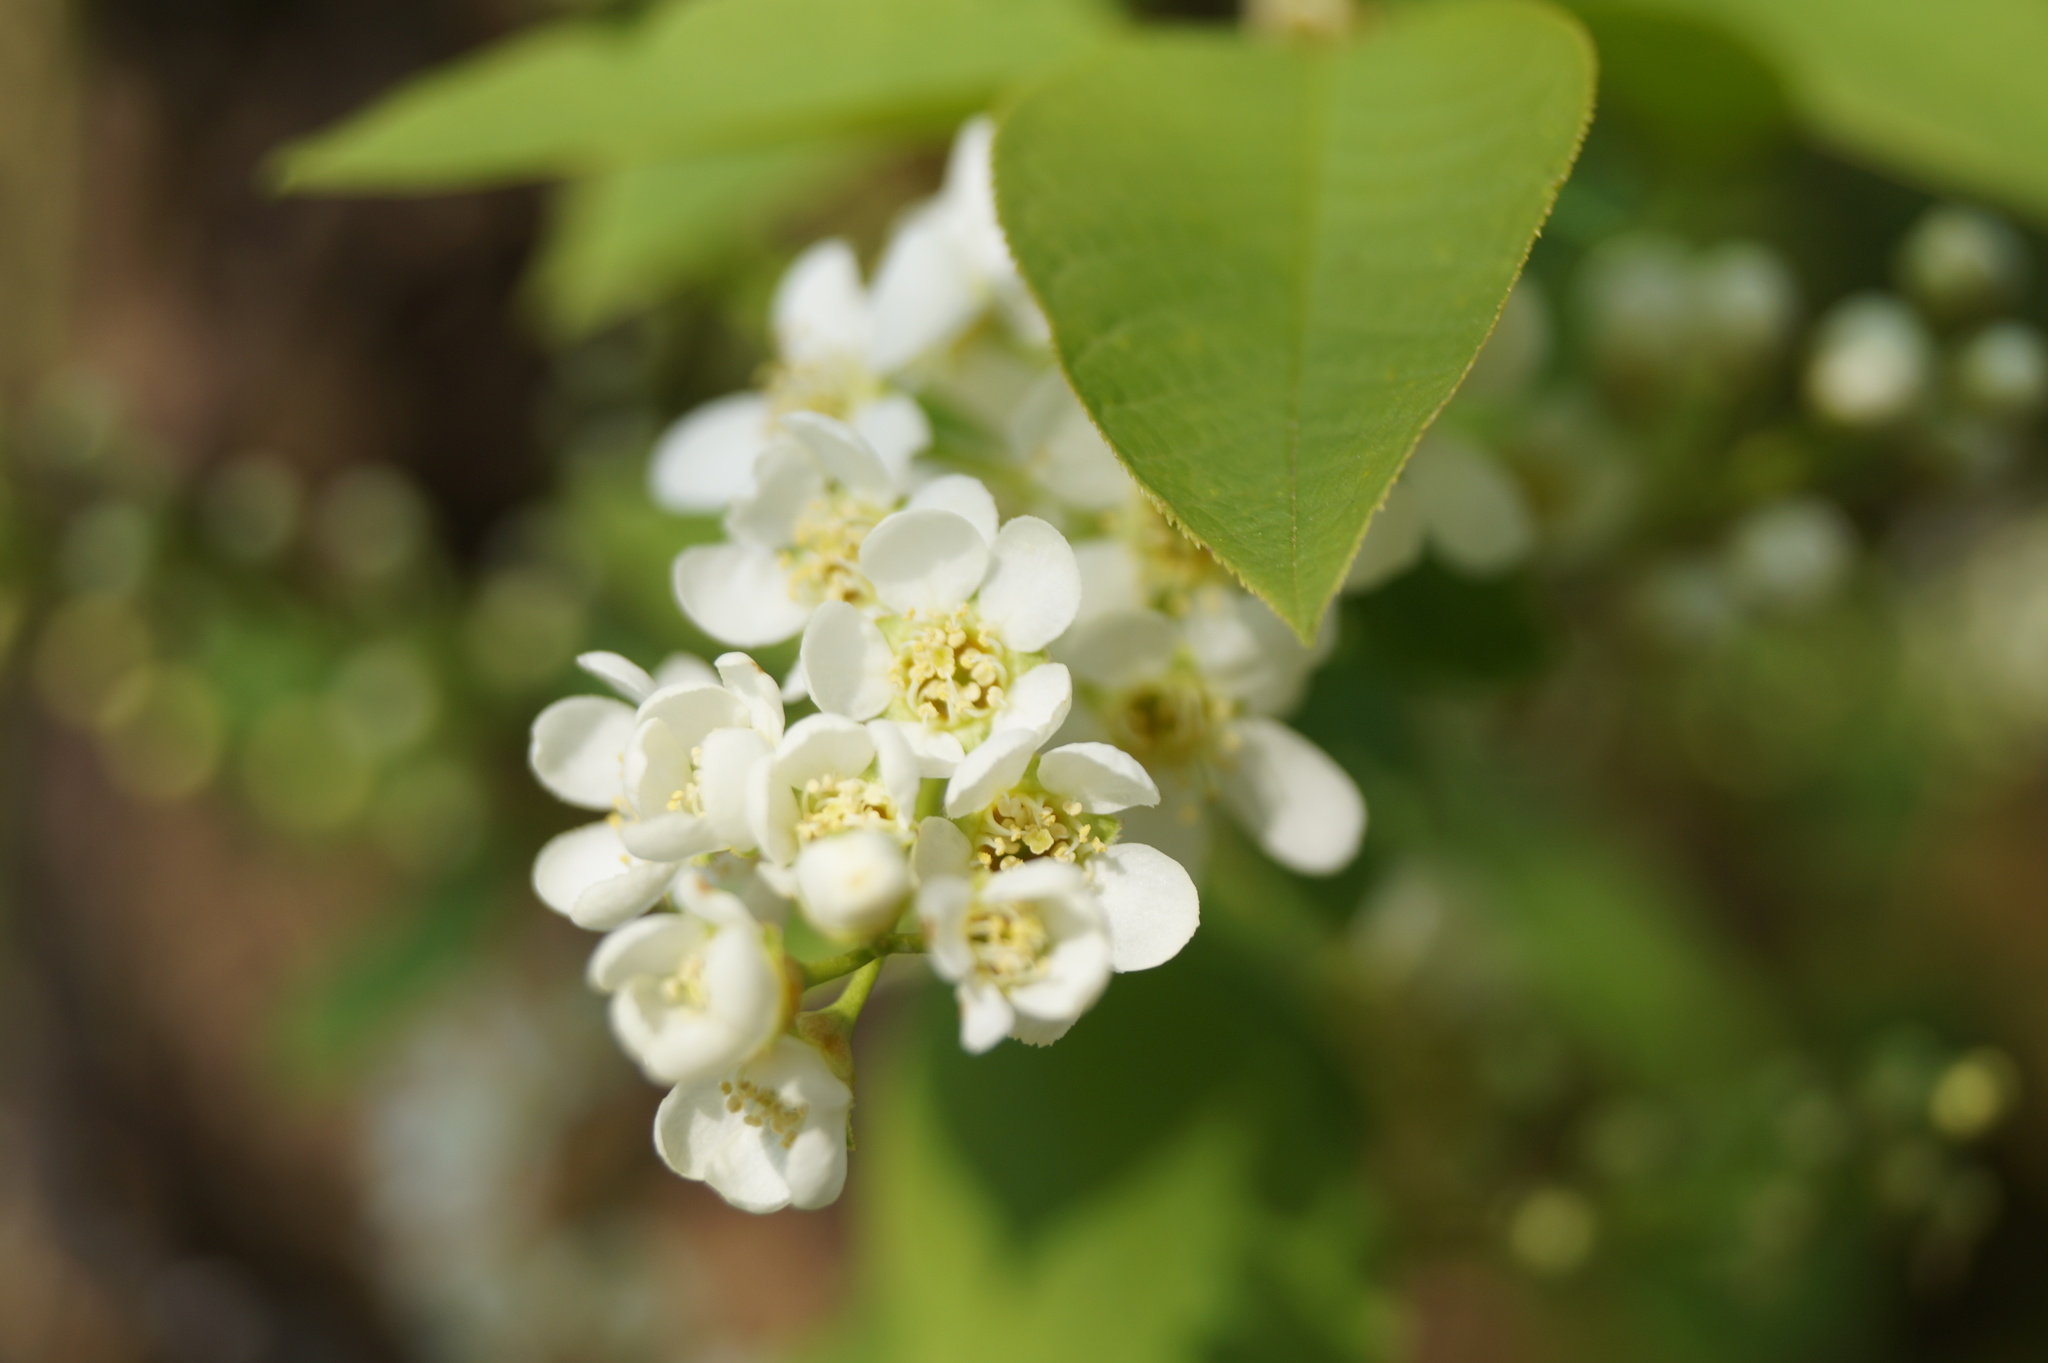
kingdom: Plantae
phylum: Tracheophyta
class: Magnoliopsida
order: Rosales
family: Rosaceae
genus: Prunus
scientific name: Prunus padus
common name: Bird cherry
